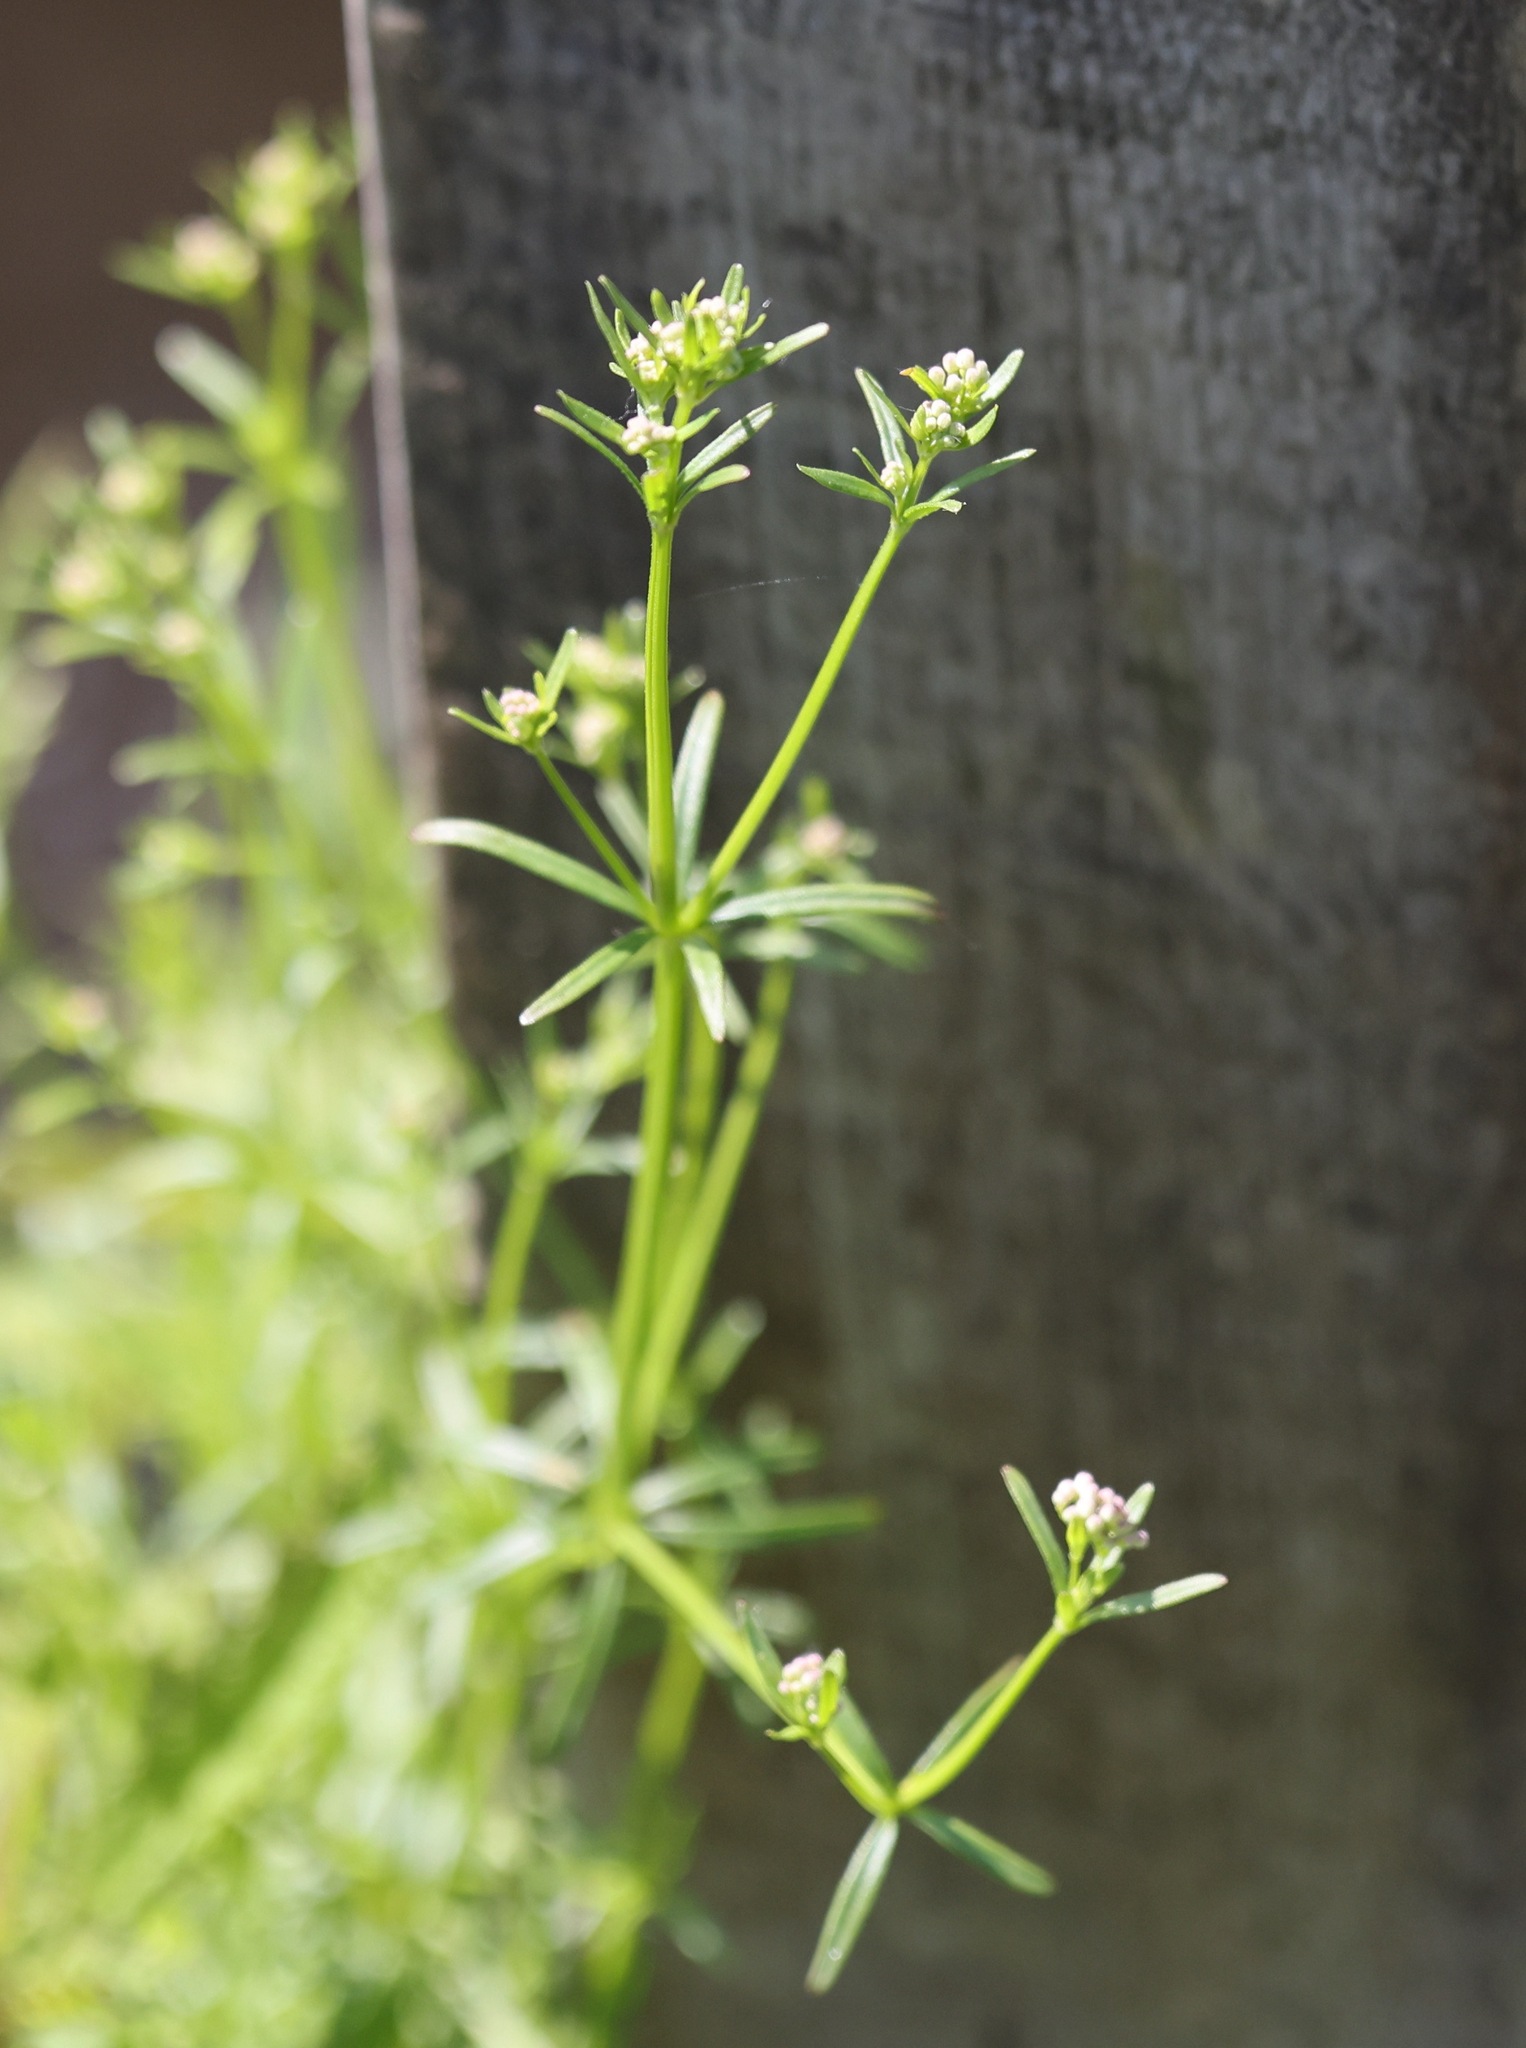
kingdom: Plantae
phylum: Tracheophyta
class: Magnoliopsida
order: Gentianales
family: Rubiaceae
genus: Galium
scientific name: Galium aparine
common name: Cleavers
